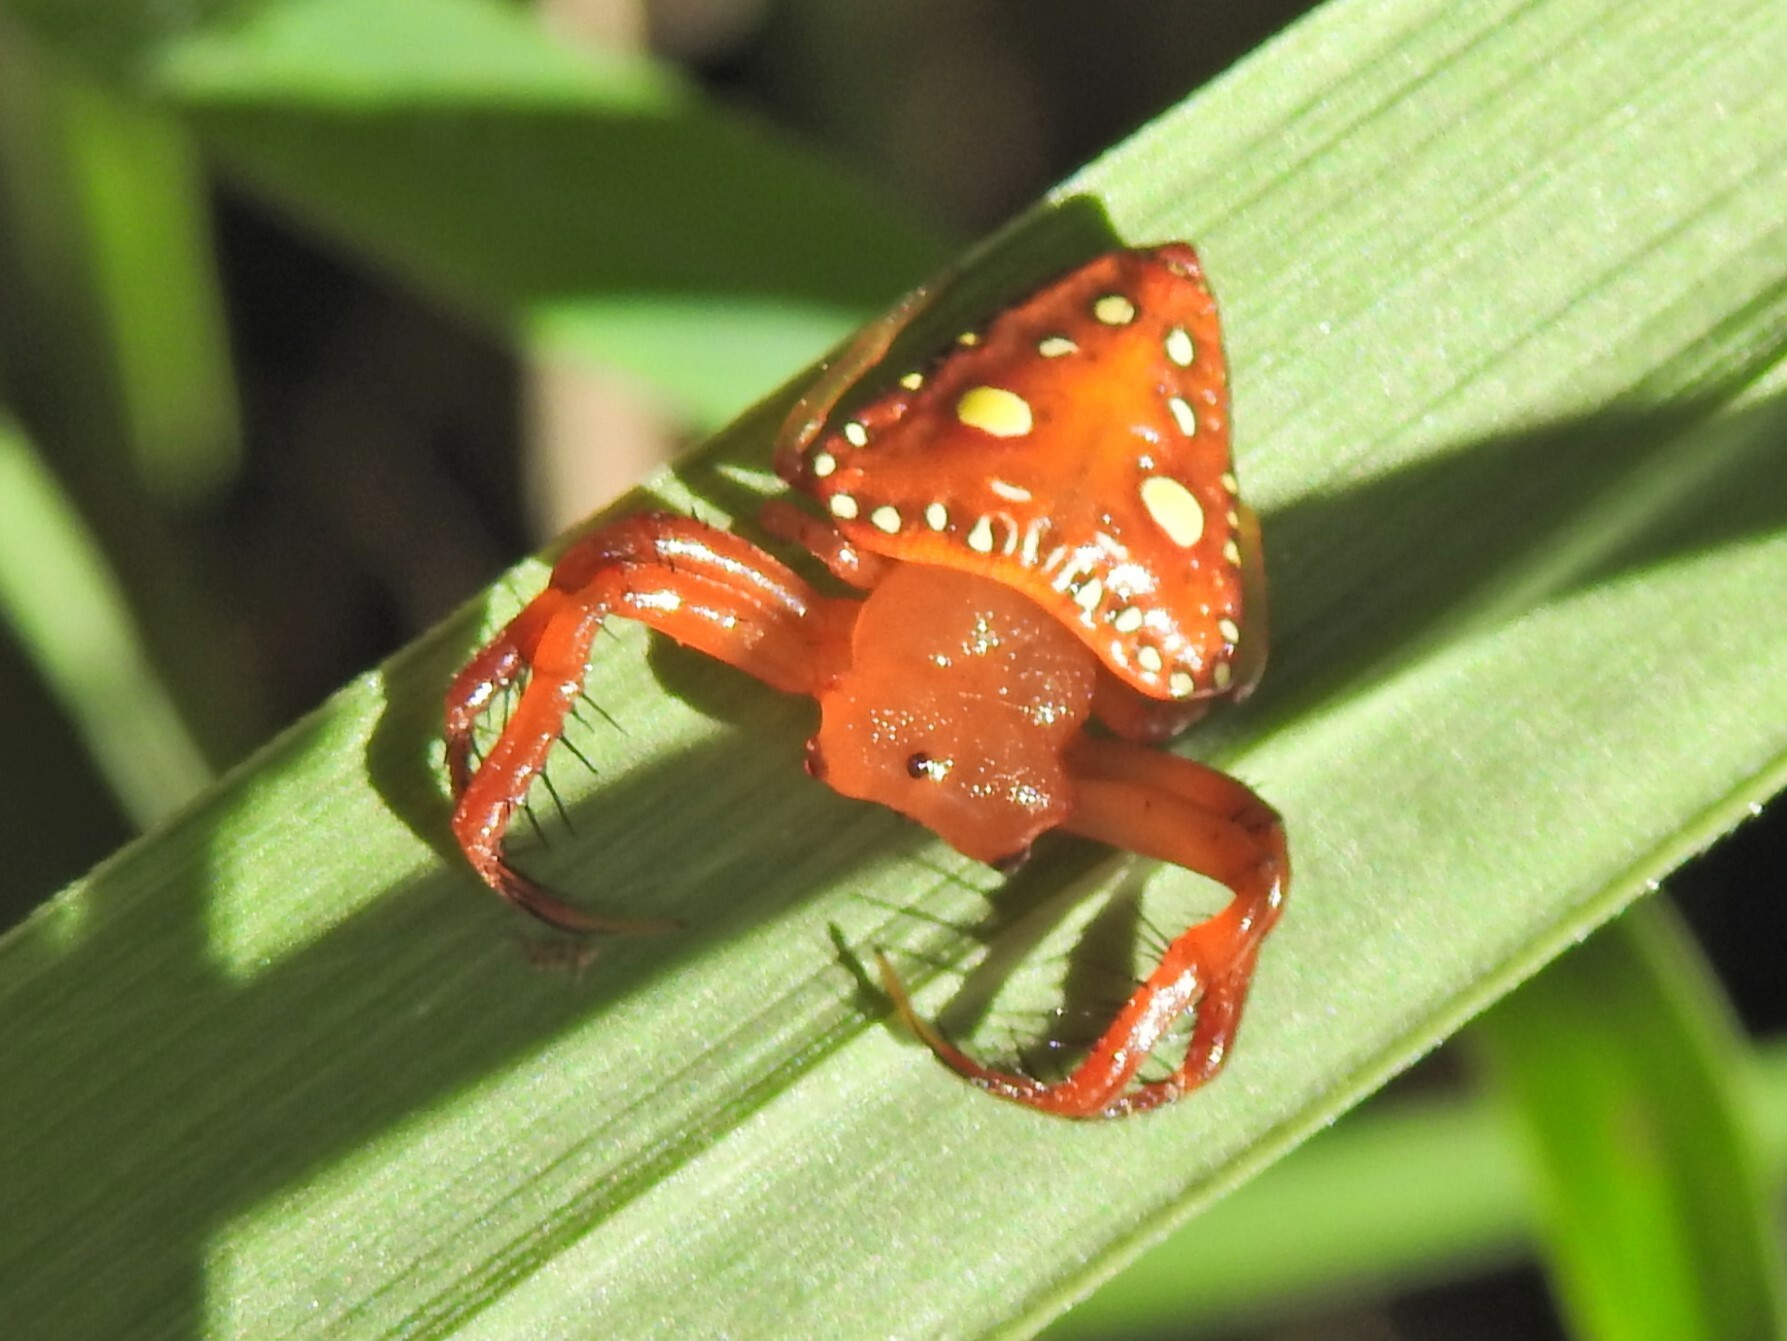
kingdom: Animalia
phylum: Arthropoda
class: Arachnida
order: Araneae
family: Arkyidae
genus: Arkys
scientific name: Arkys lancearius
